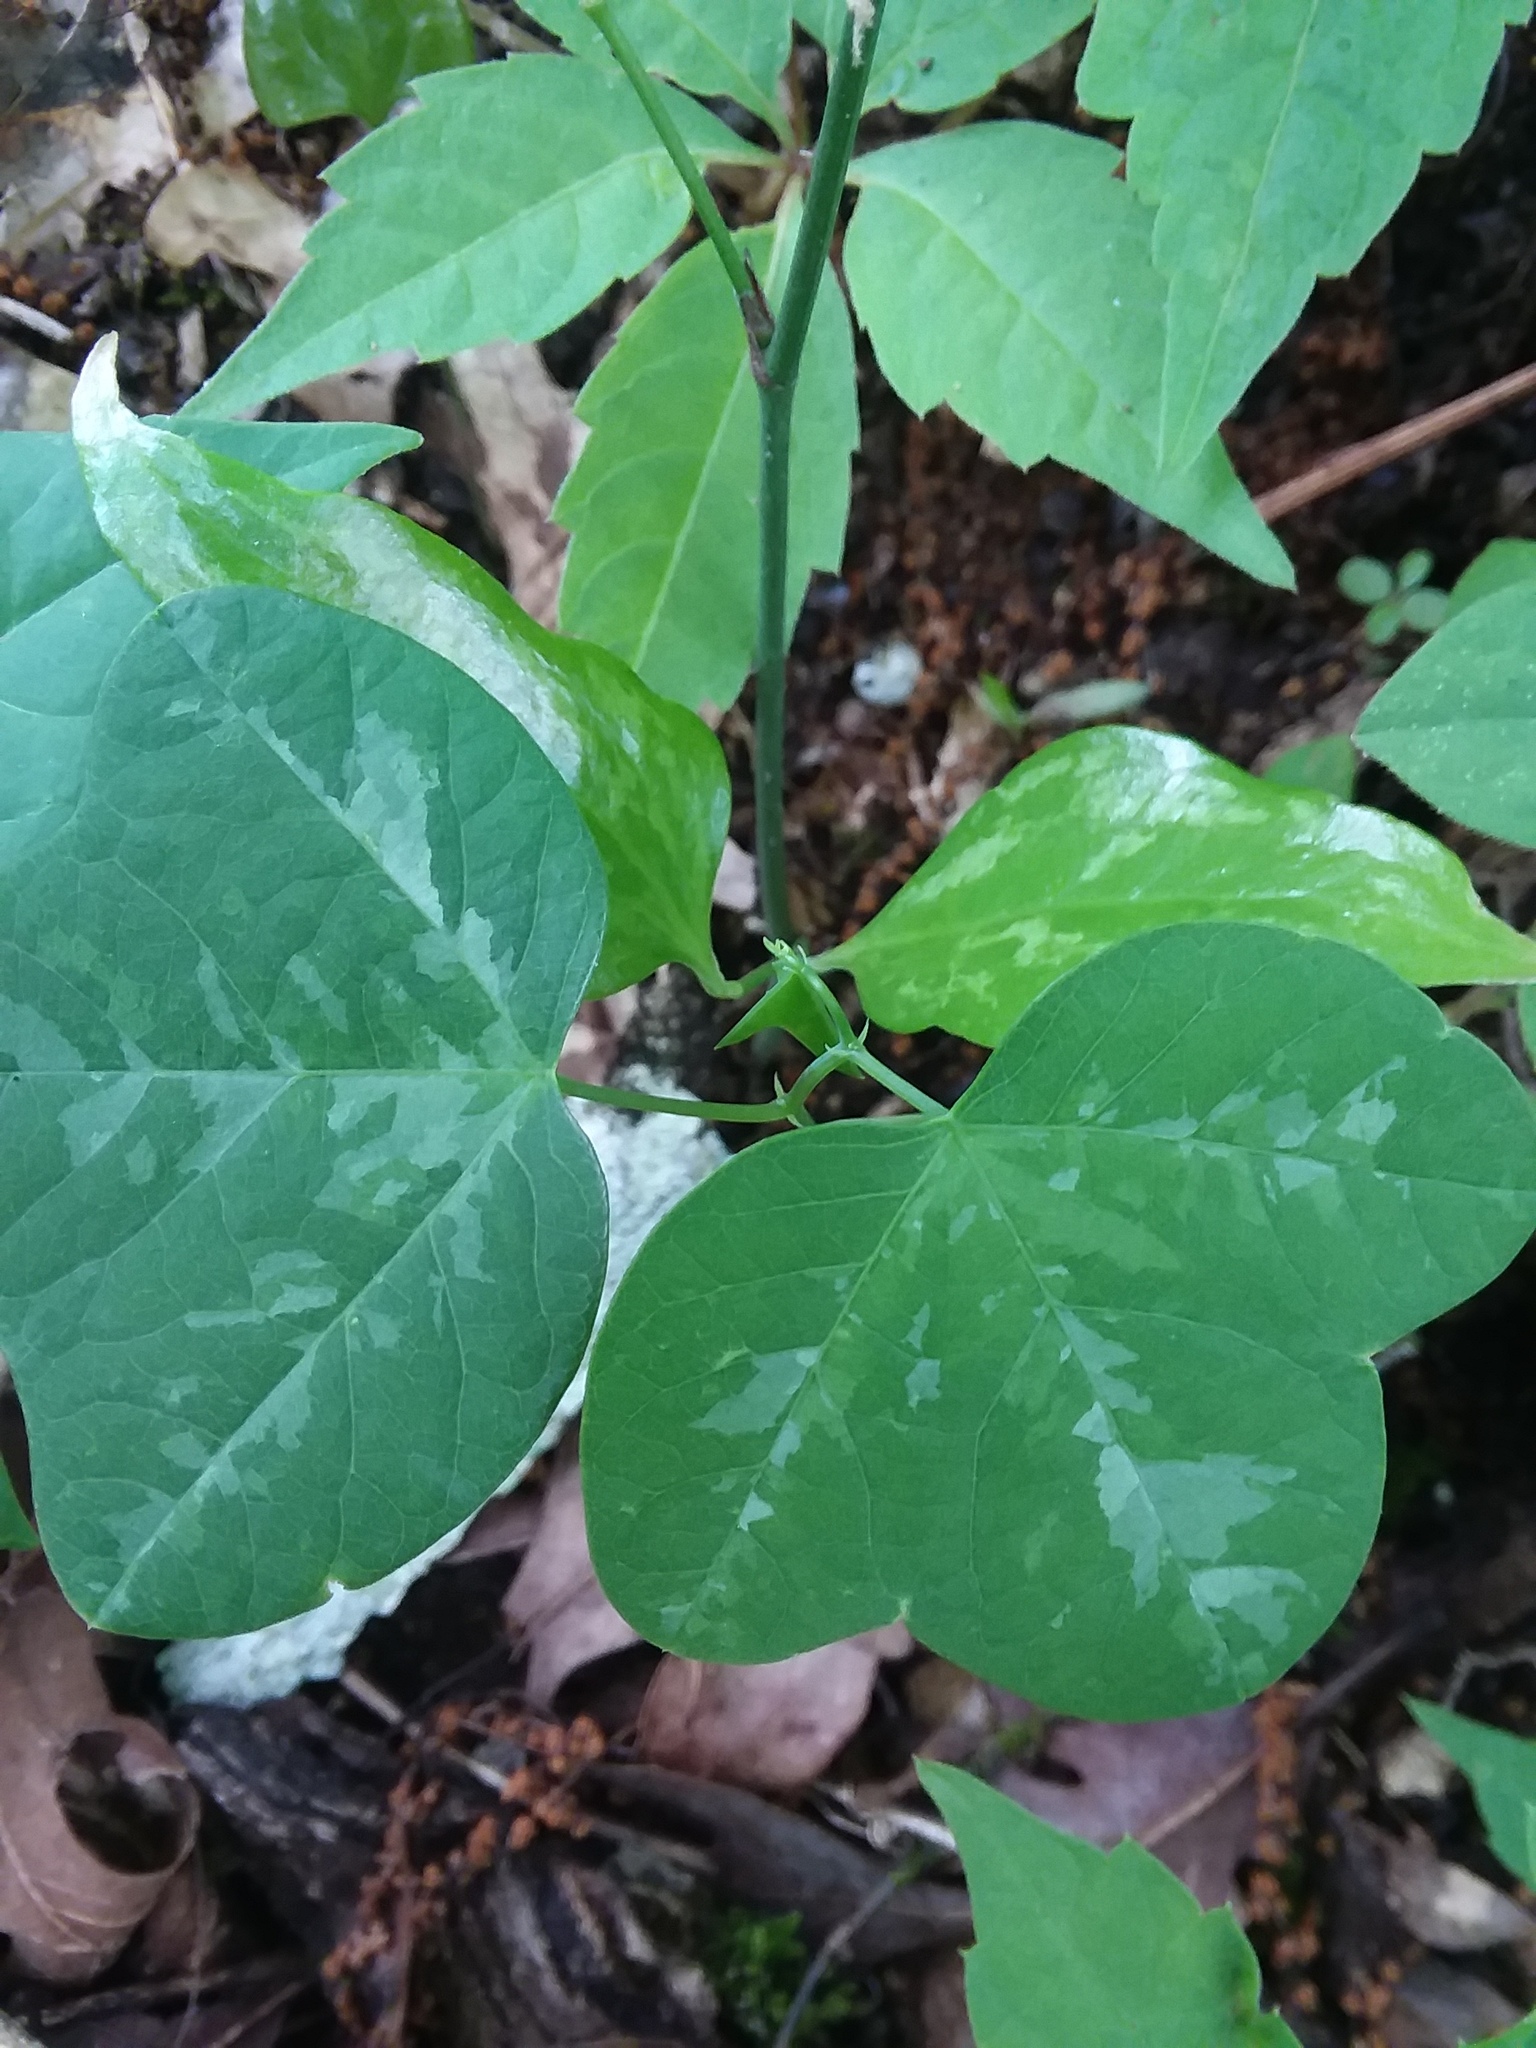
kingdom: Plantae
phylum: Tracheophyta
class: Magnoliopsida
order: Malpighiales
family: Passifloraceae
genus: Passiflora
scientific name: Passiflora lutea
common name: Yellow passionflower
